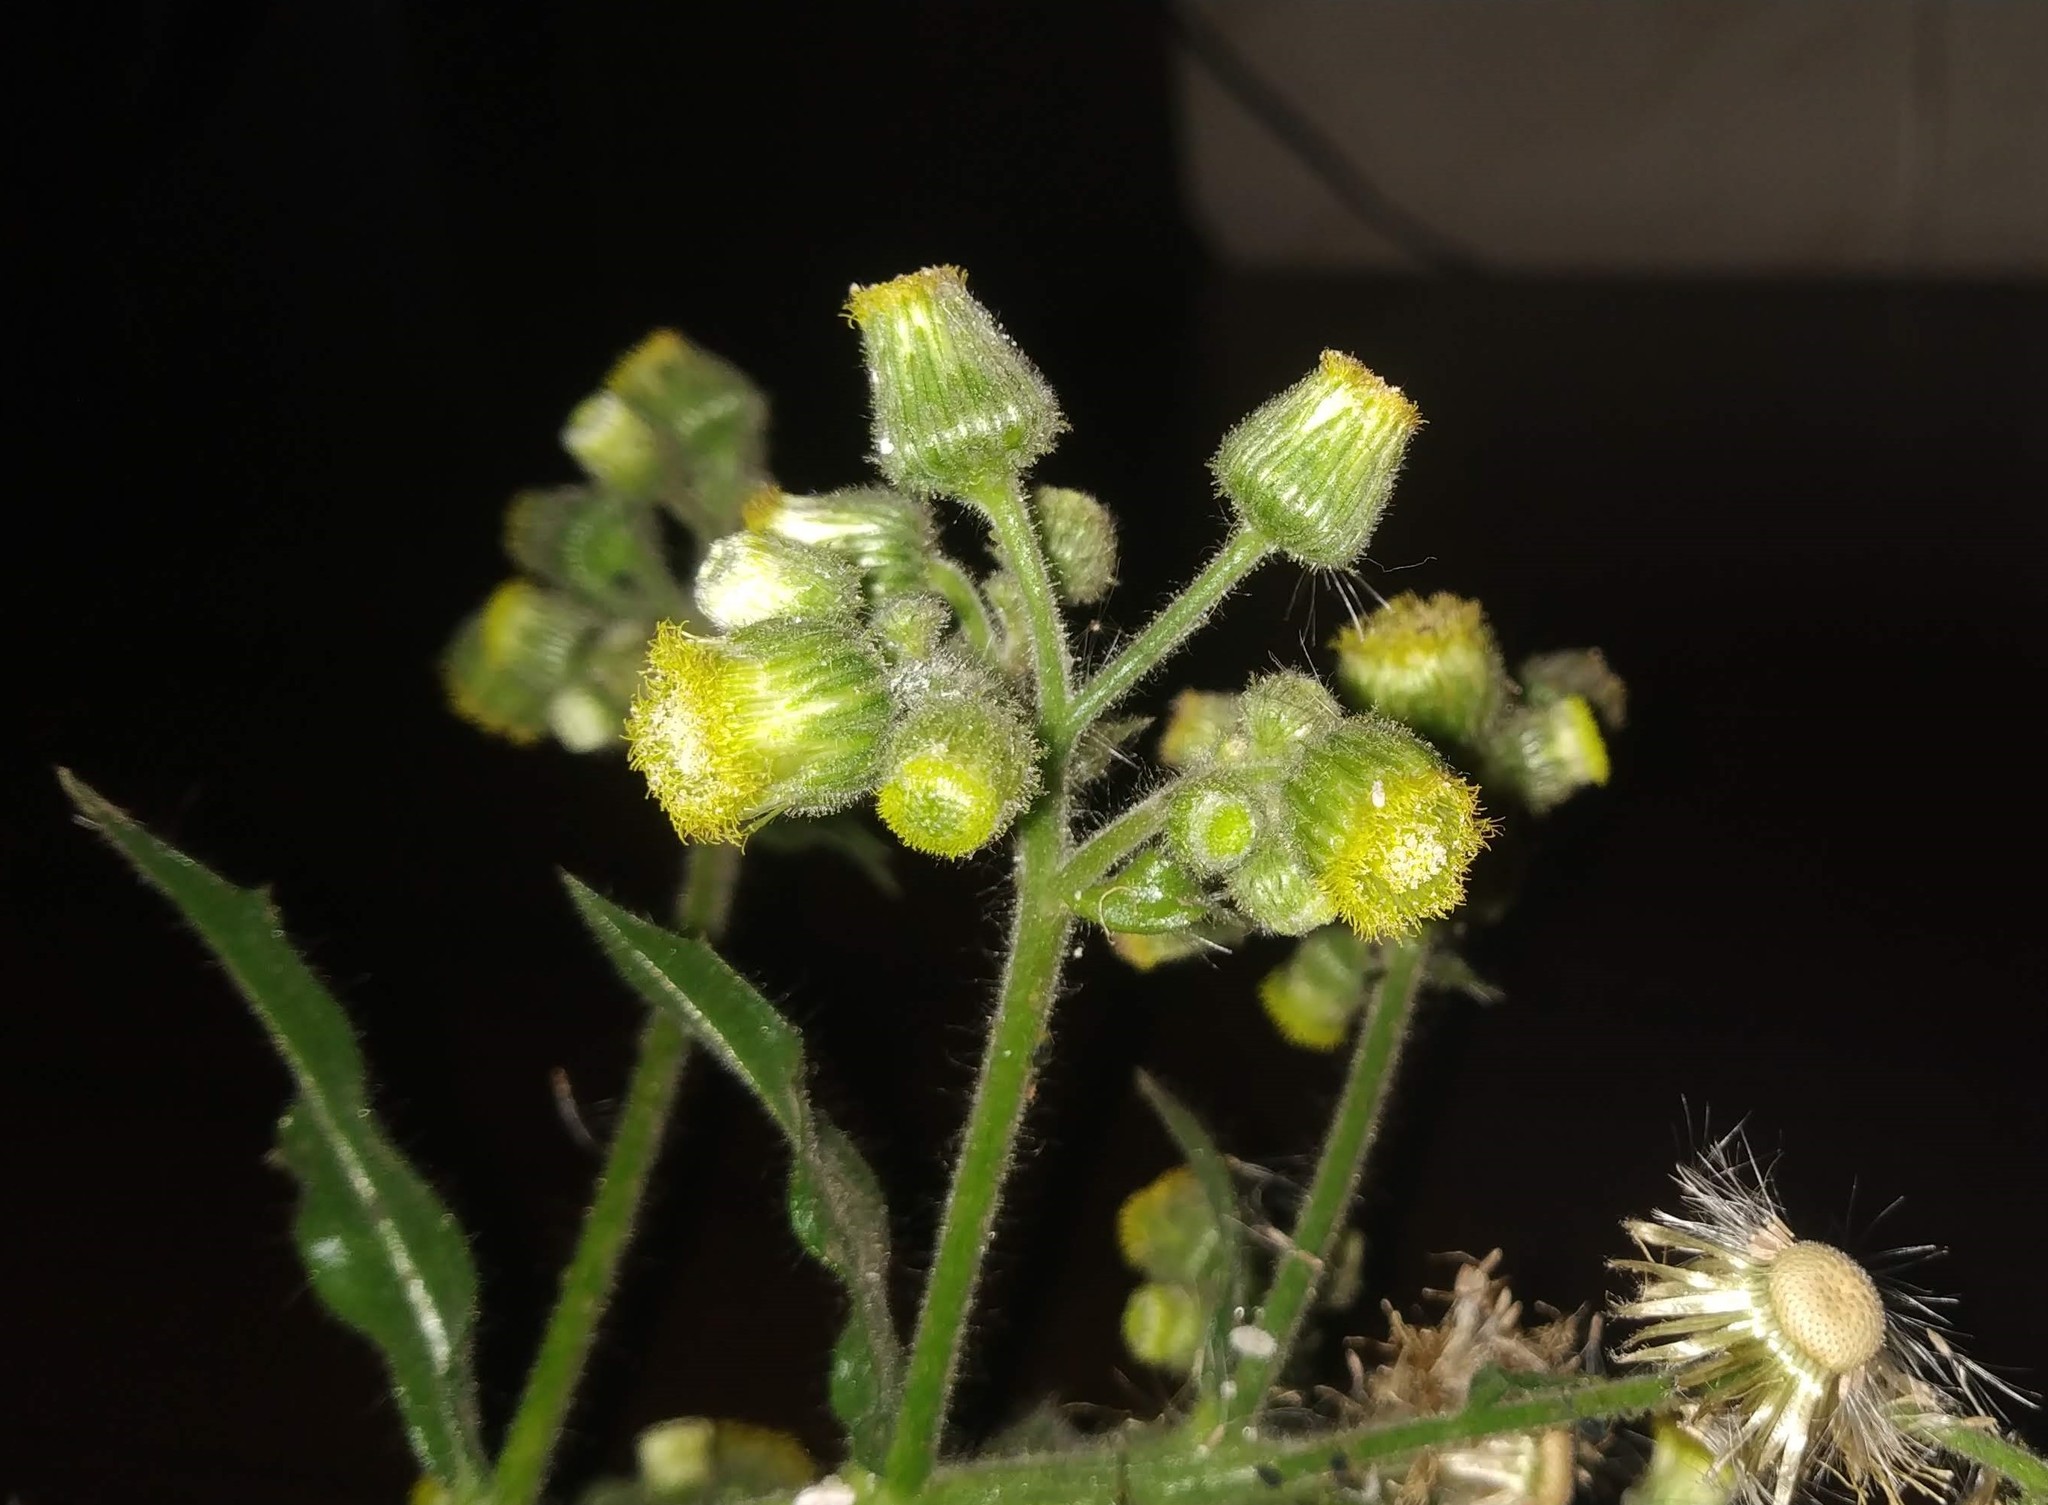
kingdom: Plantae
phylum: Tracheophyta
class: Magnoliopsida
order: Asterales
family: Asteraceae
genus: Blumea
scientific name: Blumea sinuata
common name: Cutleaf false oxtongue
